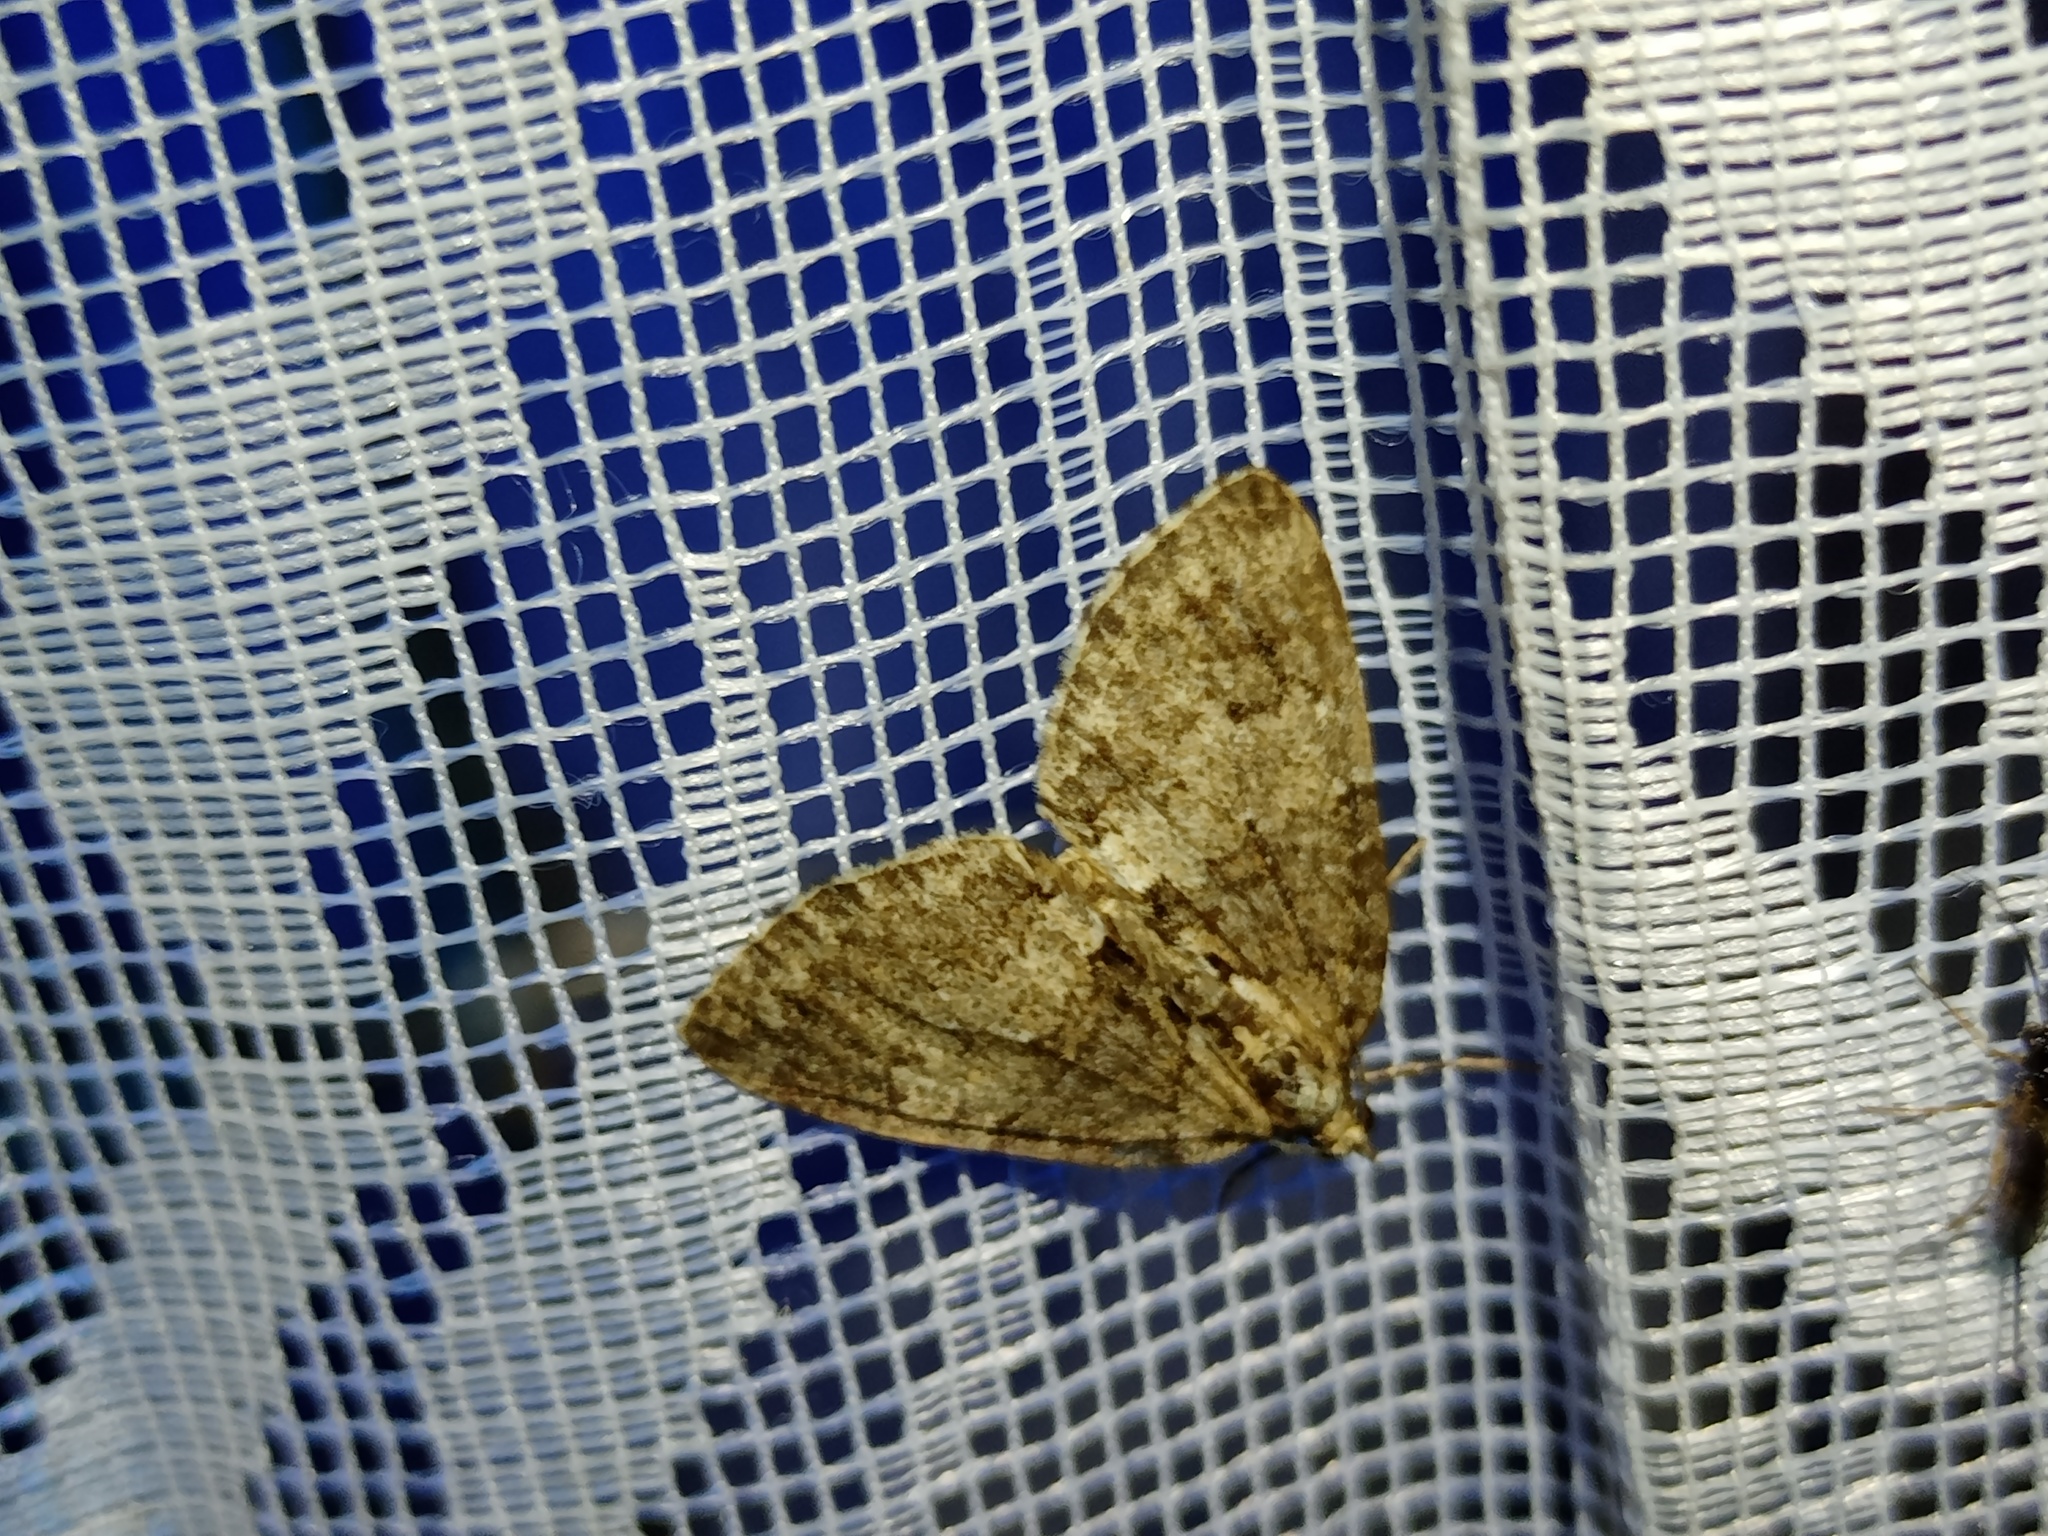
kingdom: Animalia
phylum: Arthropoda
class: Insecta
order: Lepidoptera
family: Geometridae
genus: Hydriomena
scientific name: Hydriomena impluviata
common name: May highflyer
